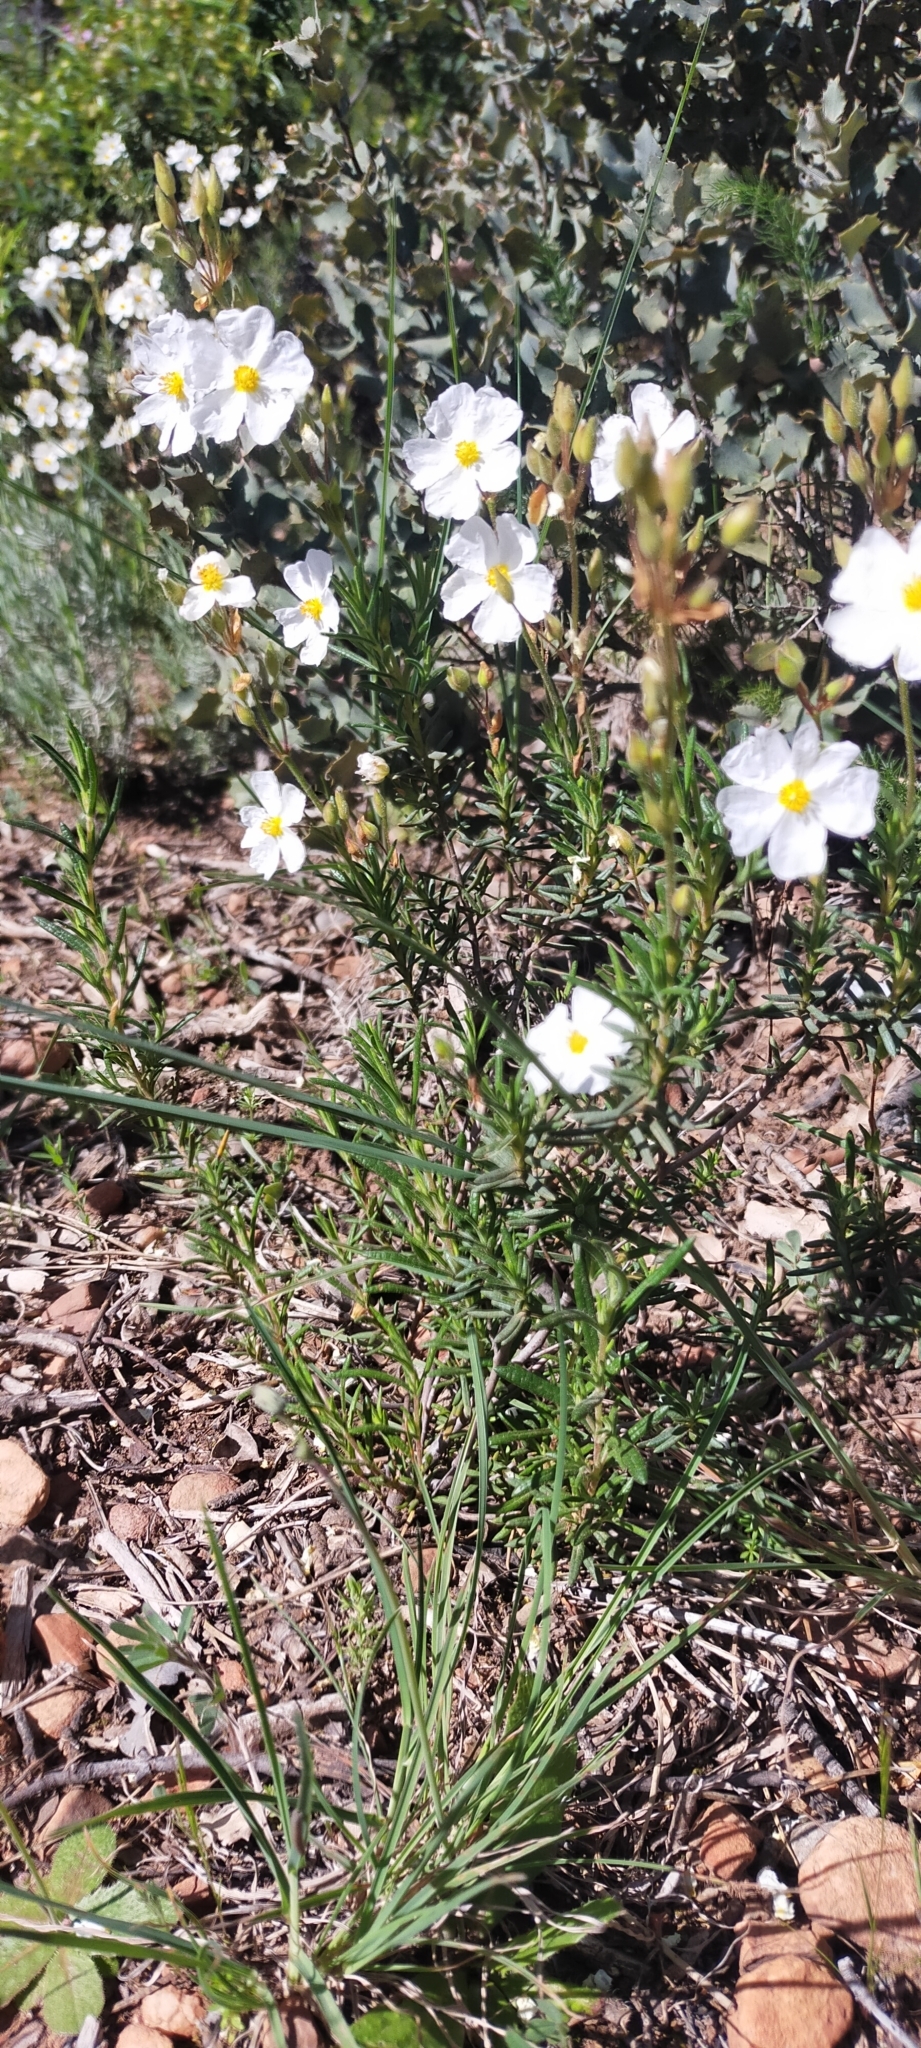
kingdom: Plantae
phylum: Tracheophyta
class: Magnoliopsida
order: Malvales
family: Cistaceae
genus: Halimium
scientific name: Halimium umbellatum
